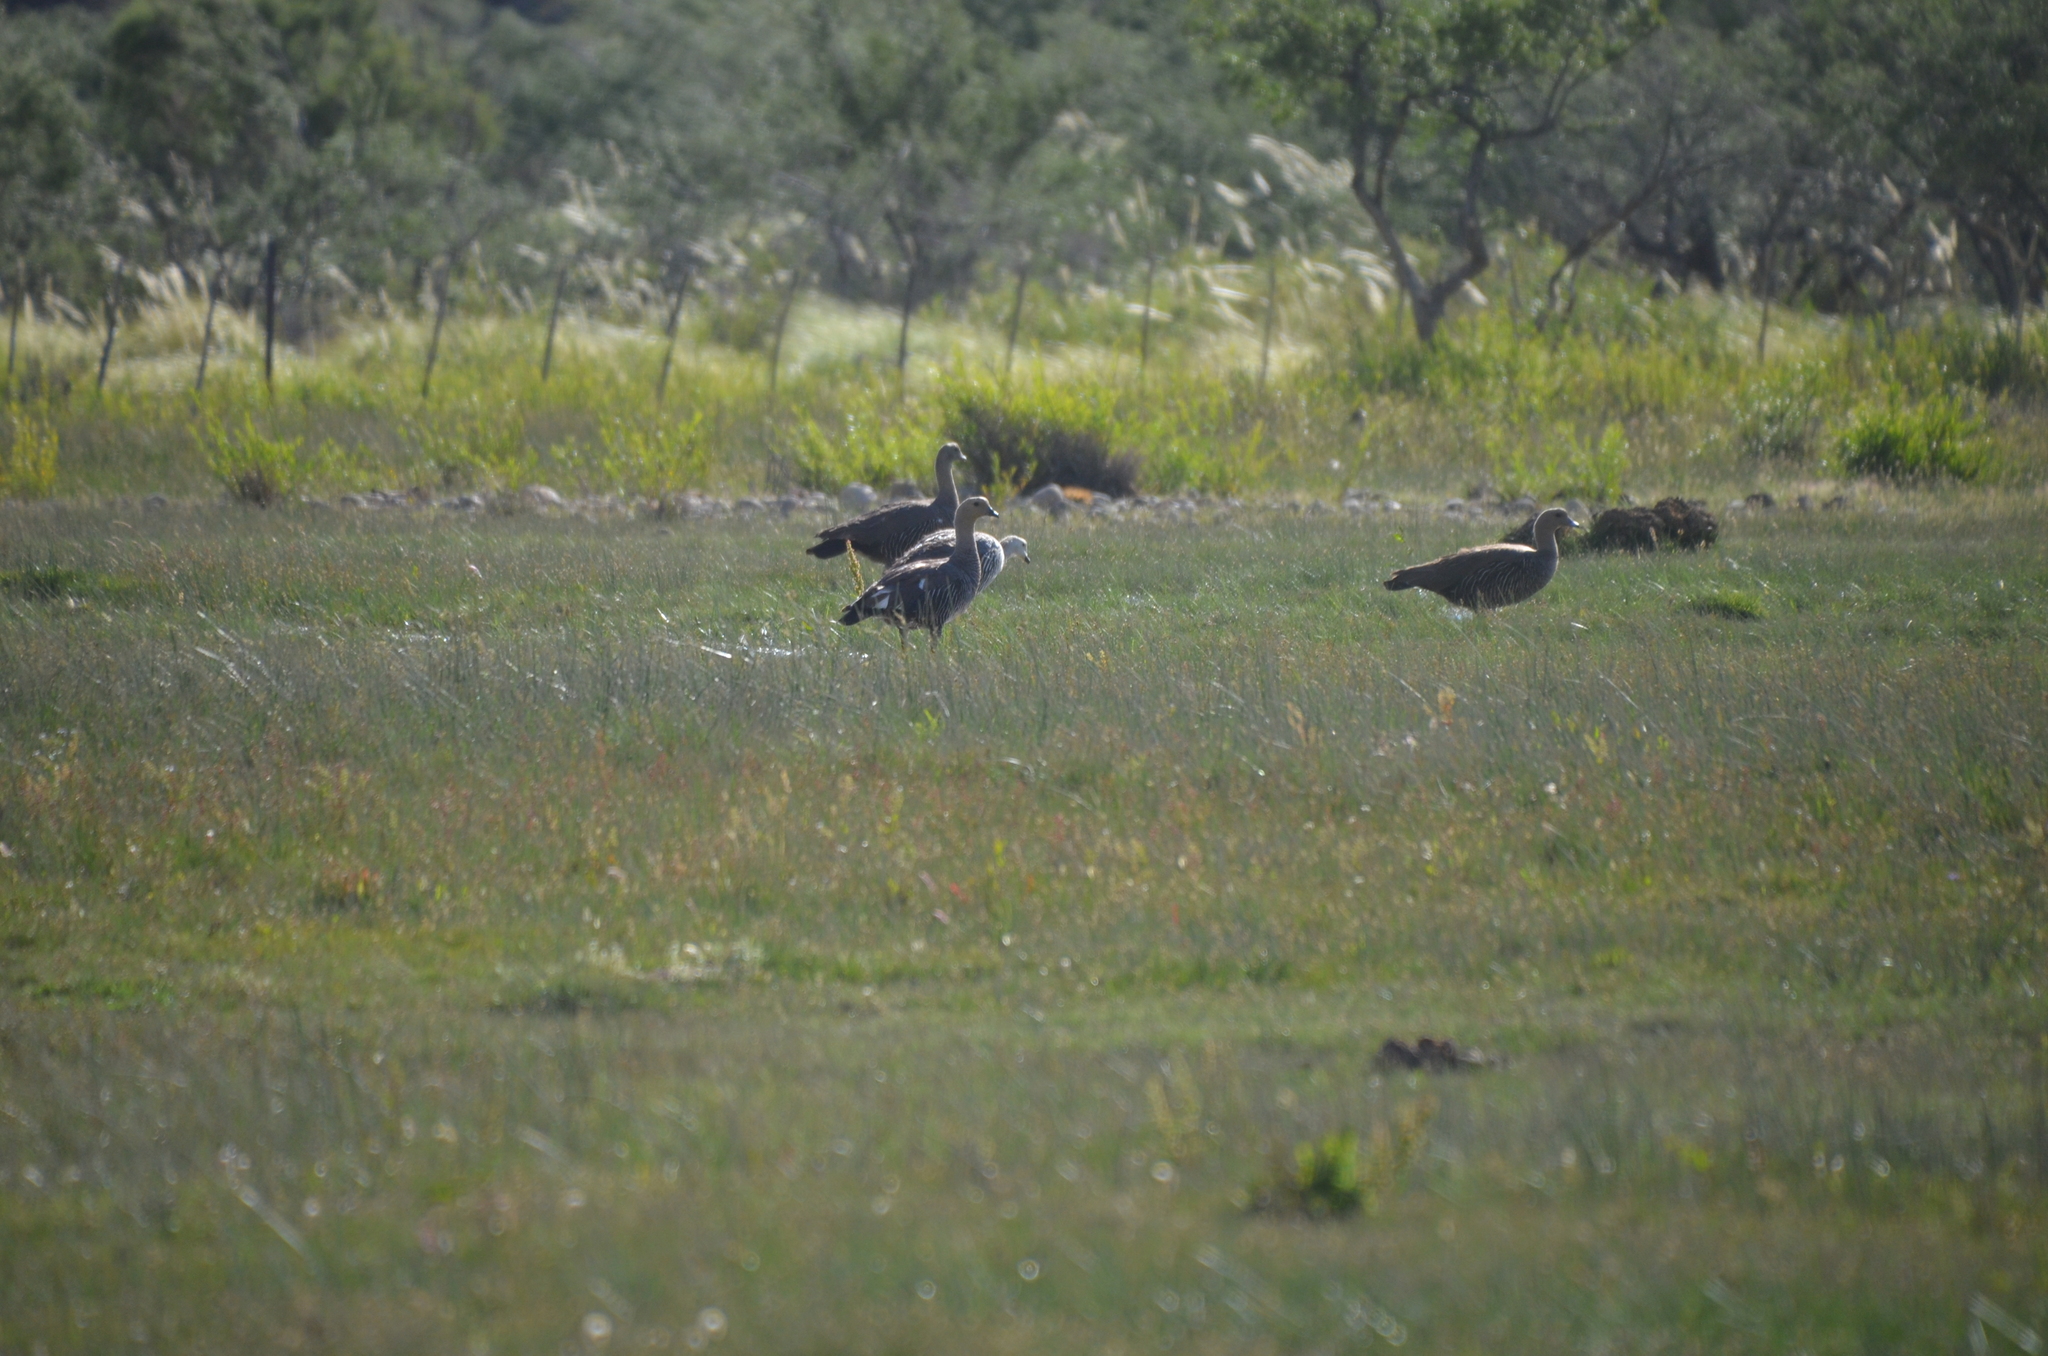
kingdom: Animalia
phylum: Chordata
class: Aves
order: Anseriformes
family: Anatidae
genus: Chloephaga
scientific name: Chloephaga picta
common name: Upland goose
